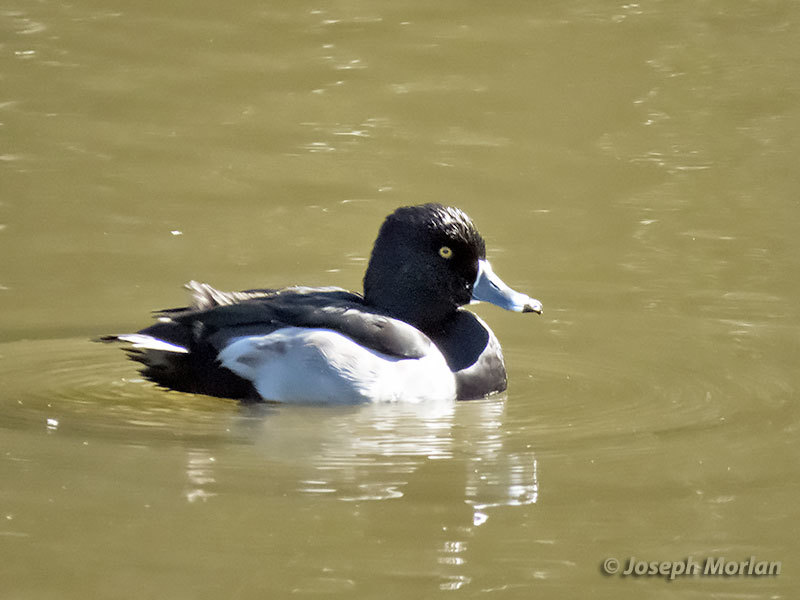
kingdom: Animalia
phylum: Chordata
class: Aves
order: Anseriformes
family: Anatidae
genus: Aythya
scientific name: Aythya collaris
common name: Ring-necked duck
